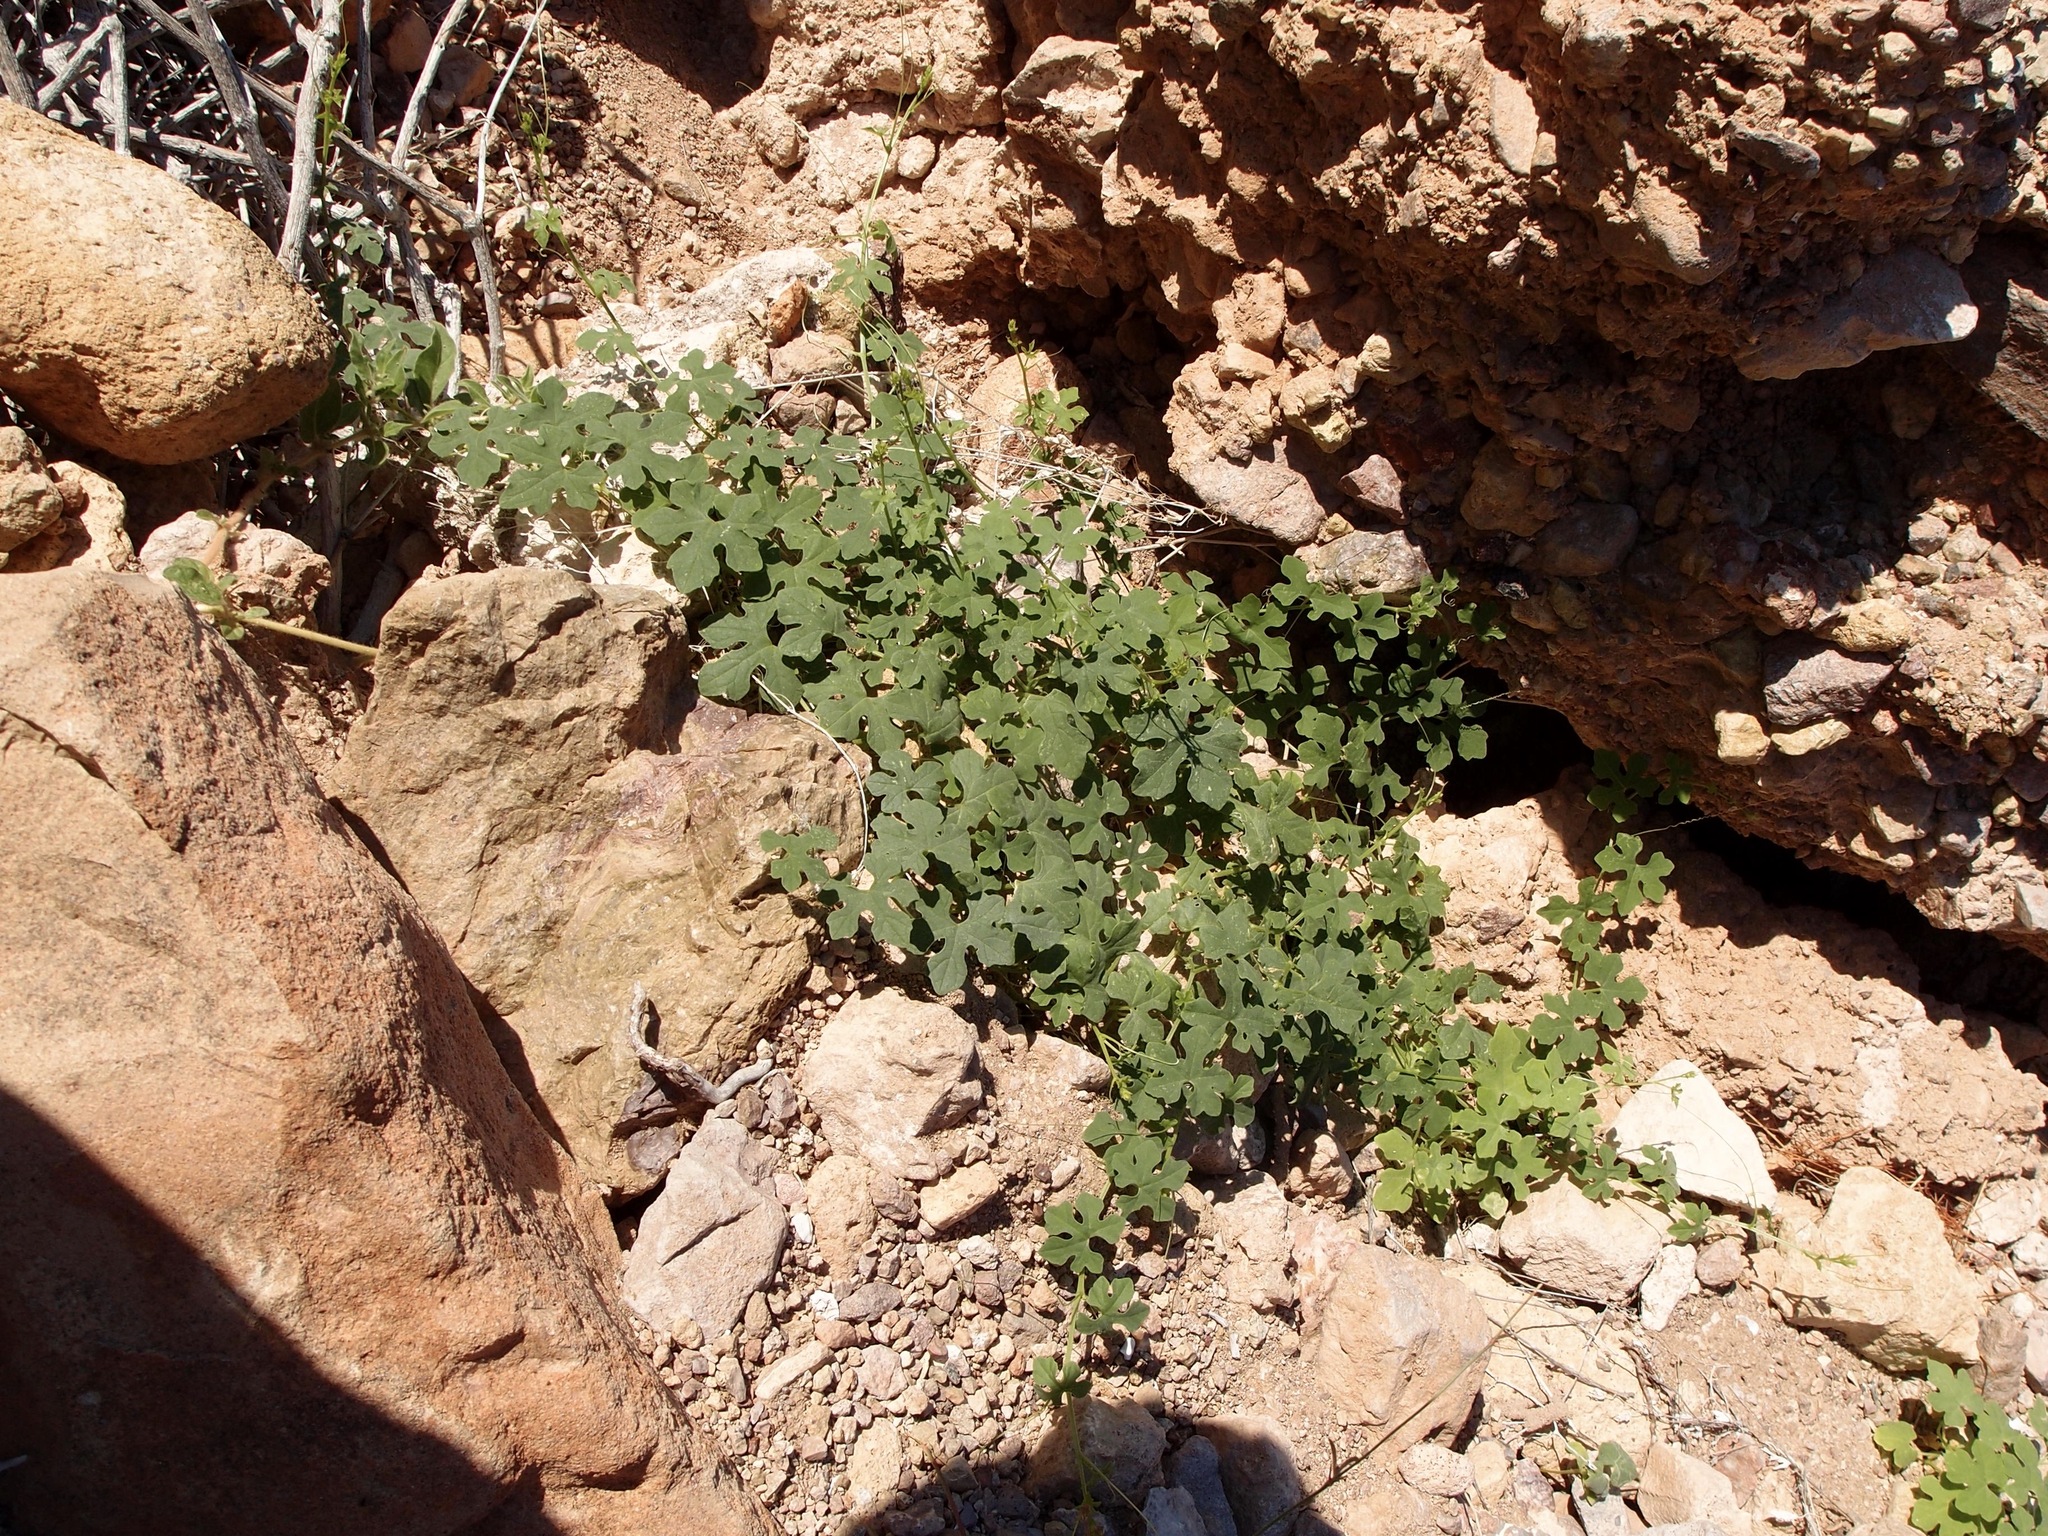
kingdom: Plantae
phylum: Tracheophyta
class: Magnoliopsida
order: Cucurbitales
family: Cucurbitaceae
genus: Echinopepon
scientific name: Echinopepon insularis
